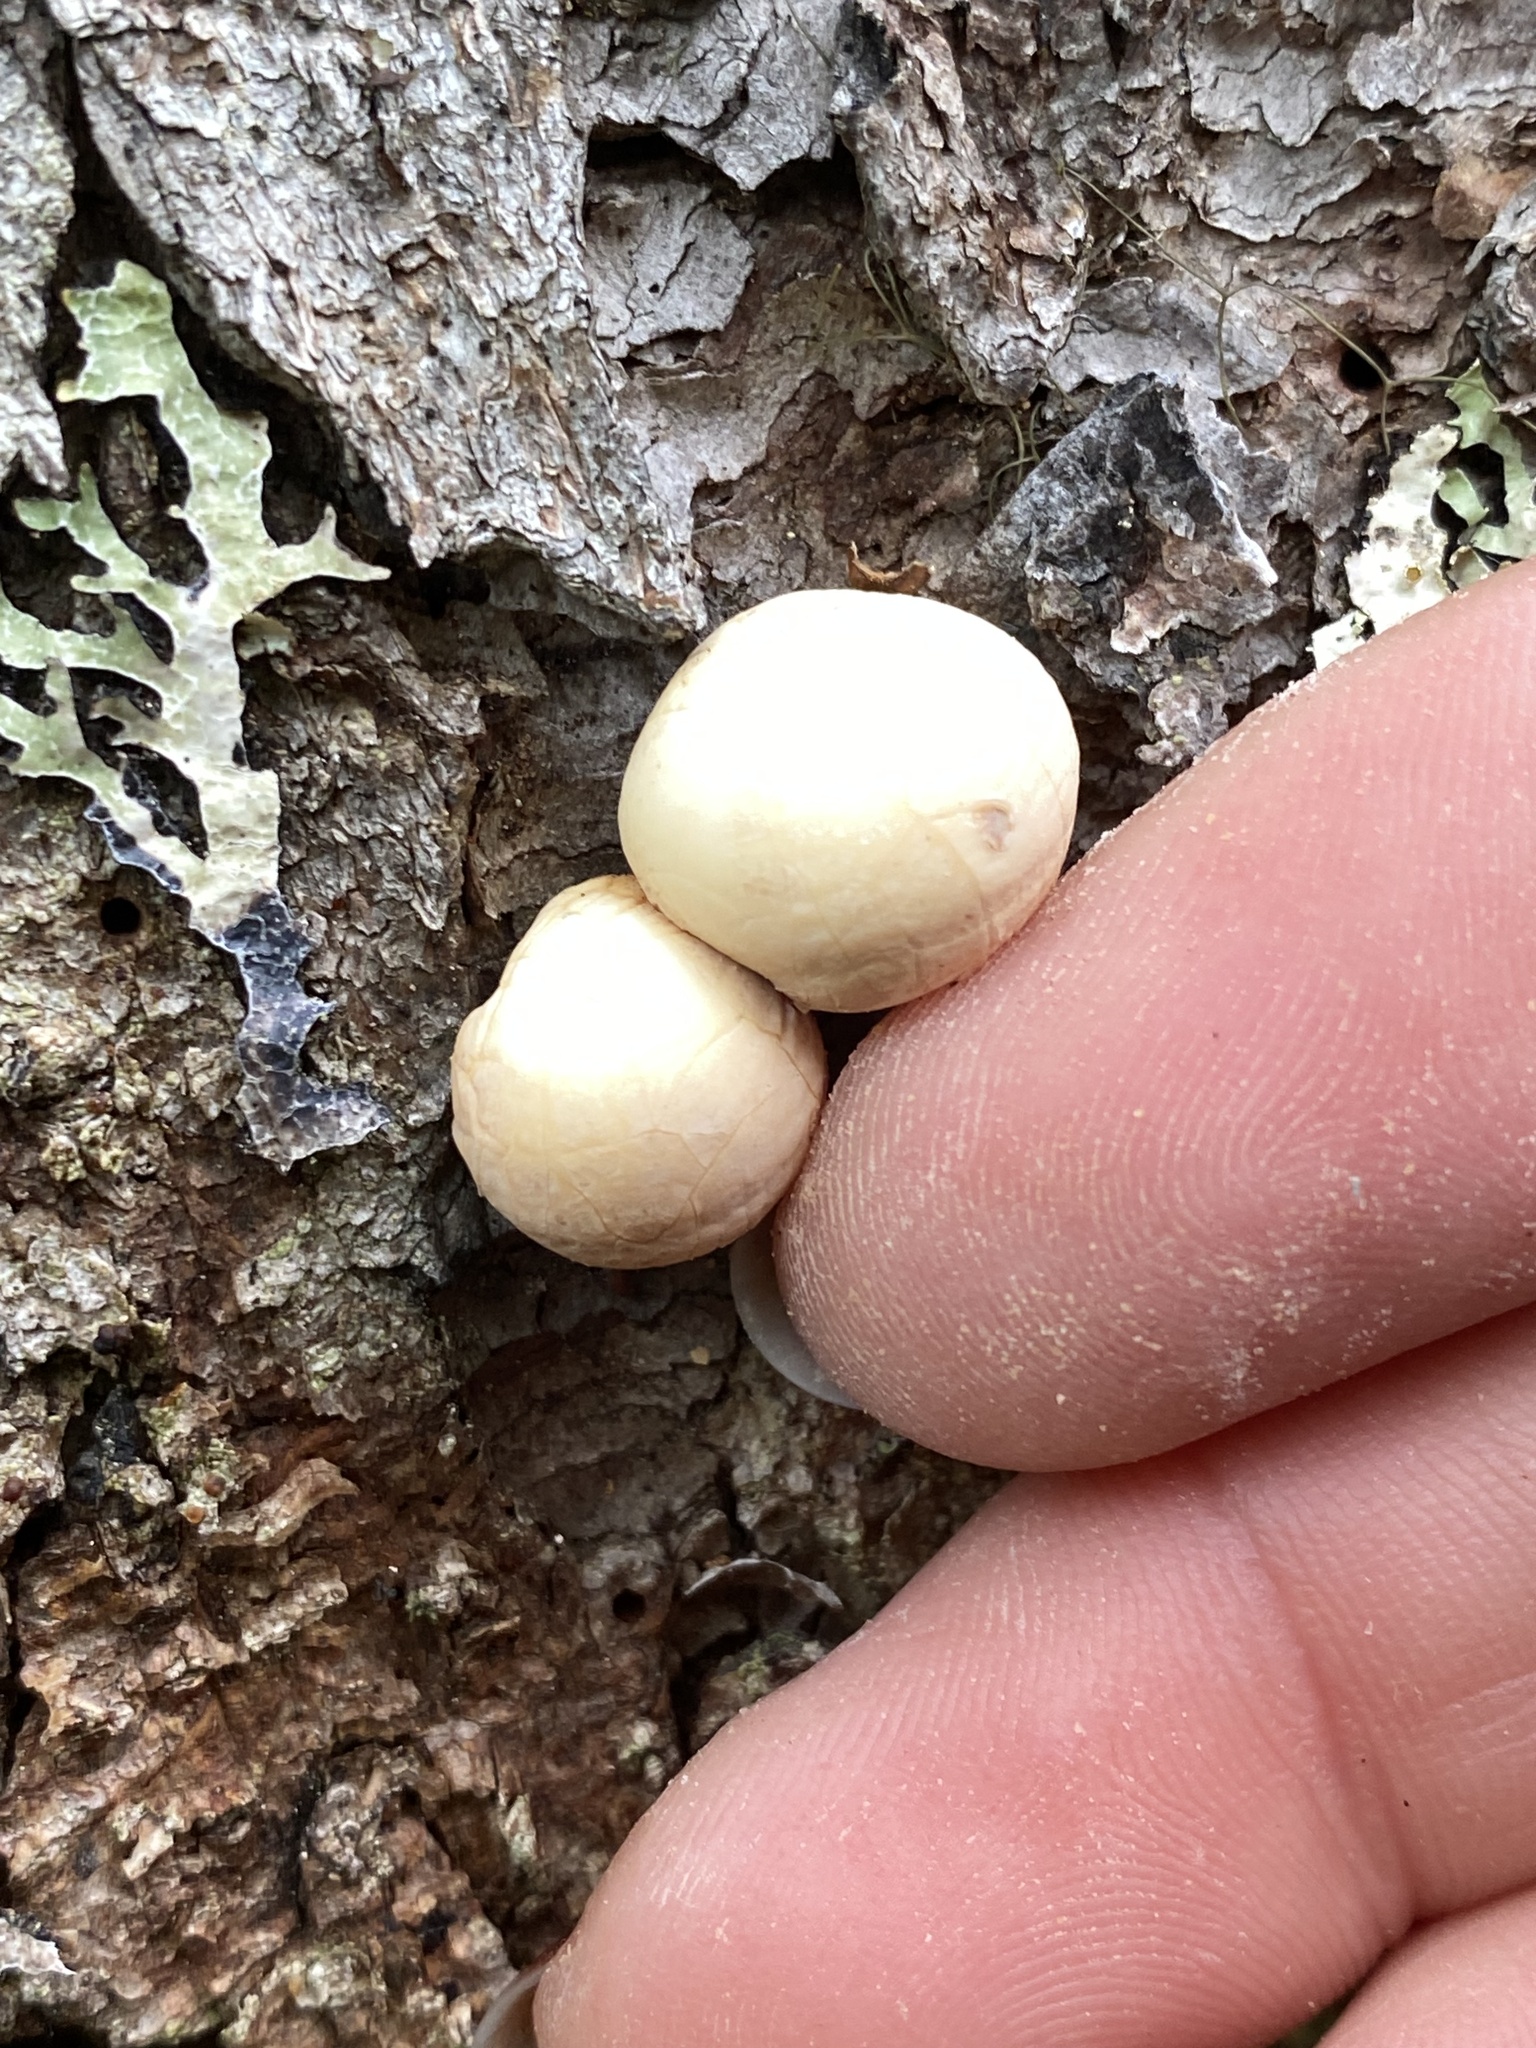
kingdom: Fungi
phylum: Basidiomycota
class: Agaricomycetes
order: Polyporales
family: Polyporaceae
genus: Cryptoporus
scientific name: Cryptoporus volvatus
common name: Veiled polypore
